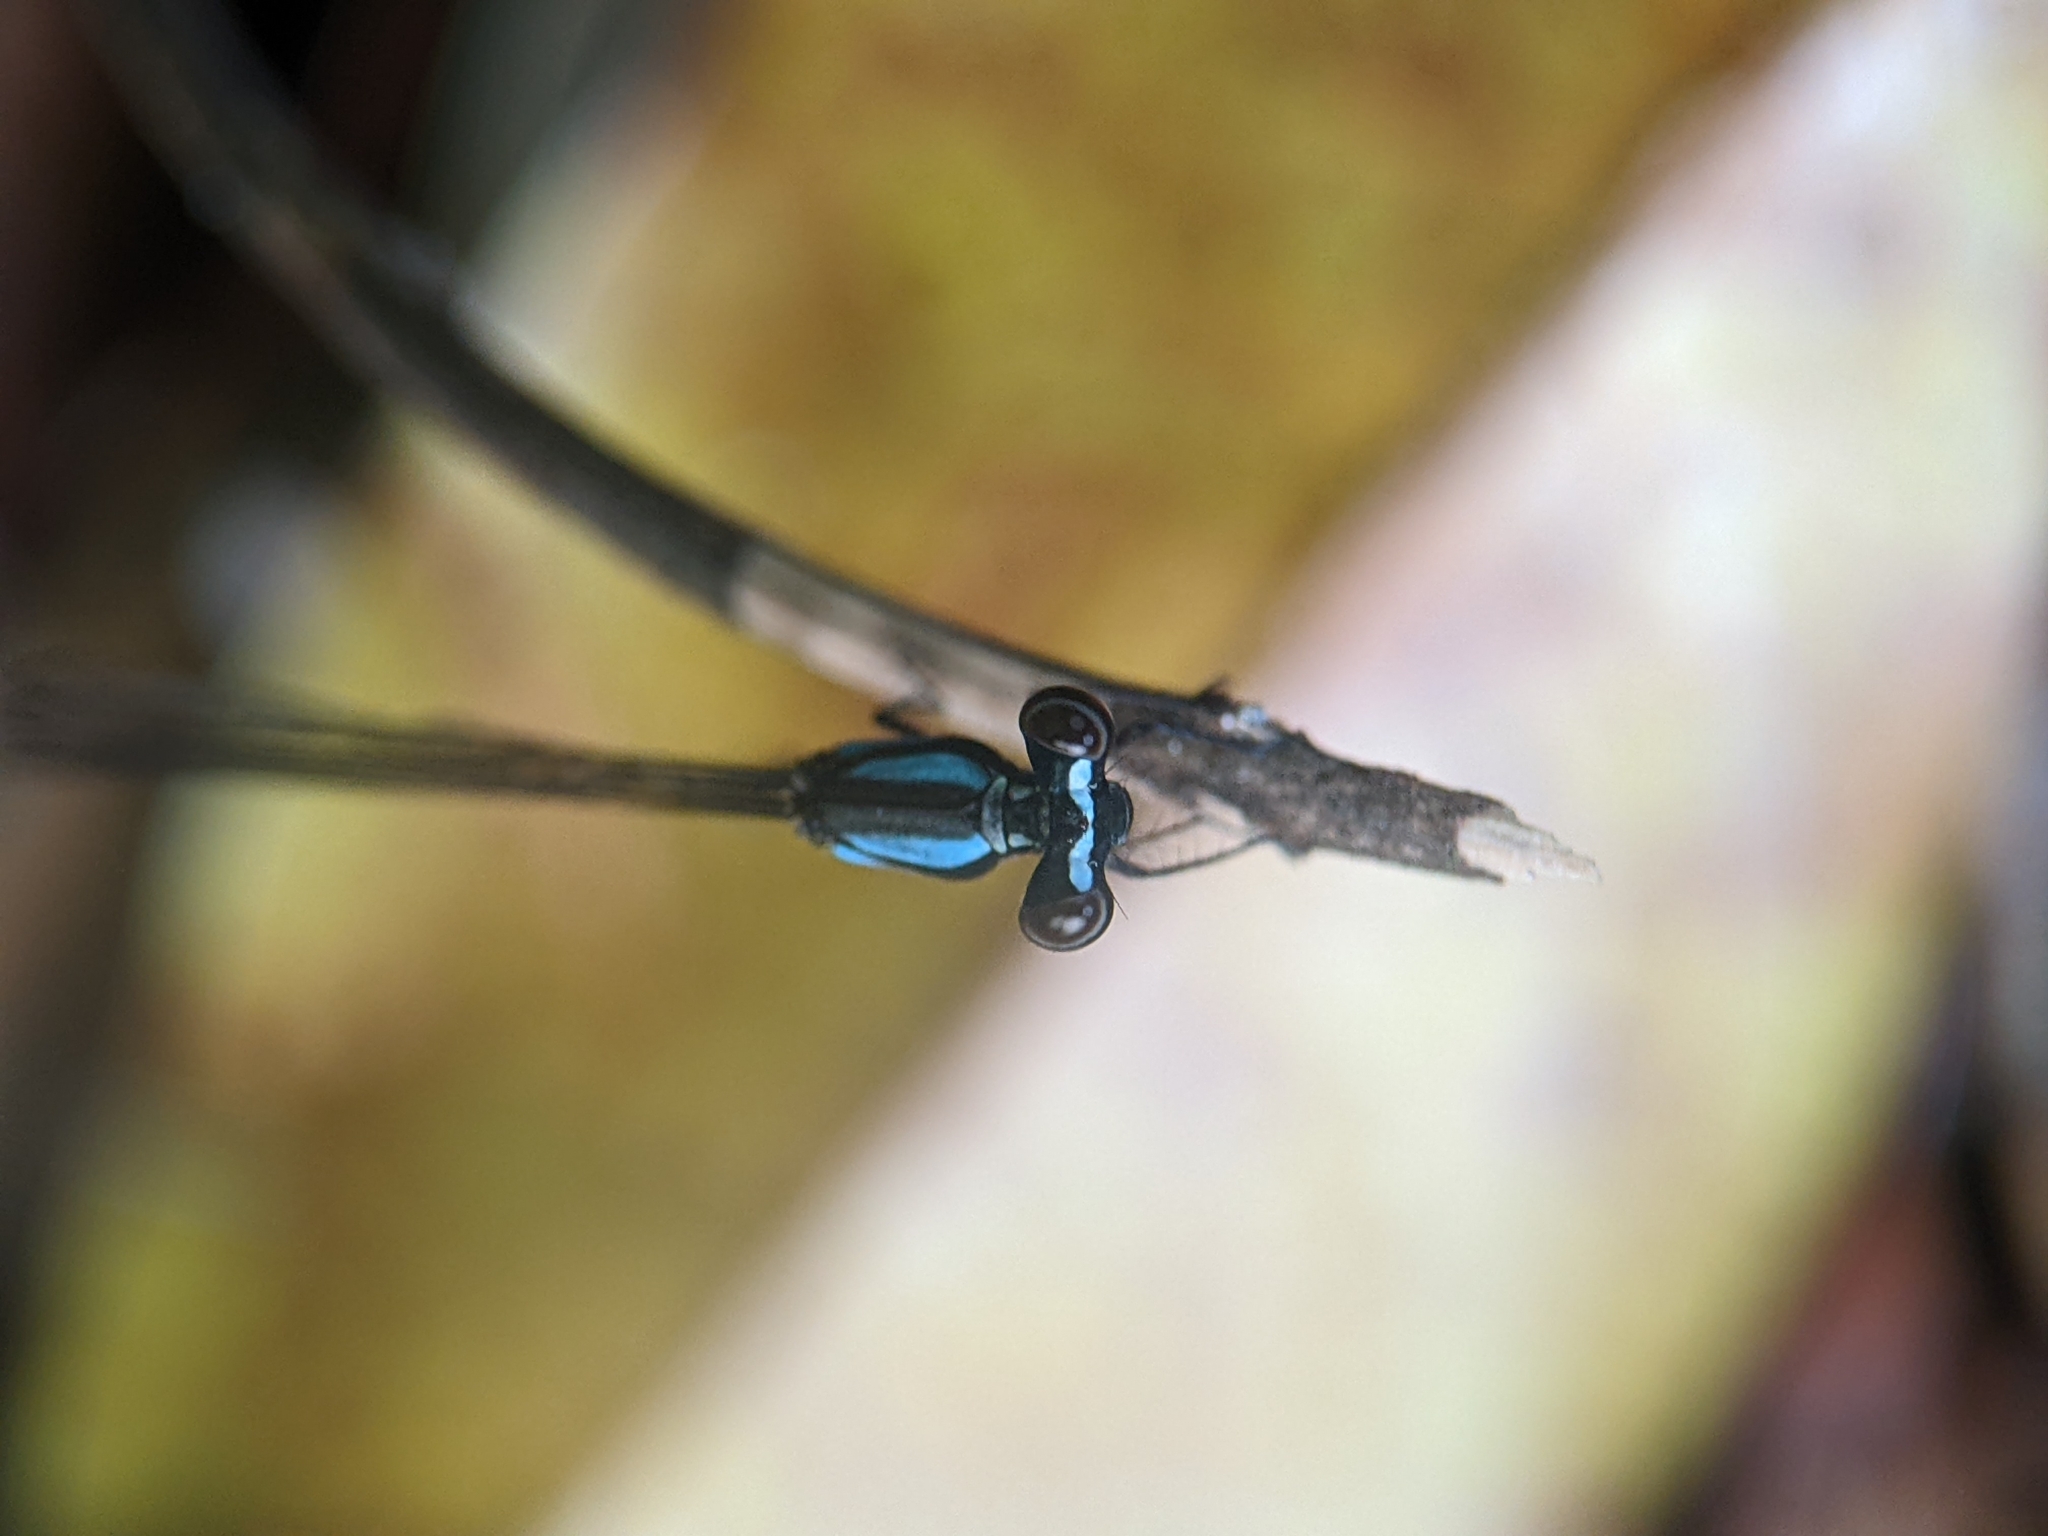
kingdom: Animalia
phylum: Arthropoda
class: Insecta
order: Odonata
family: Platycnemididae
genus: Prodasineura
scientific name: Prodasineura collaris
